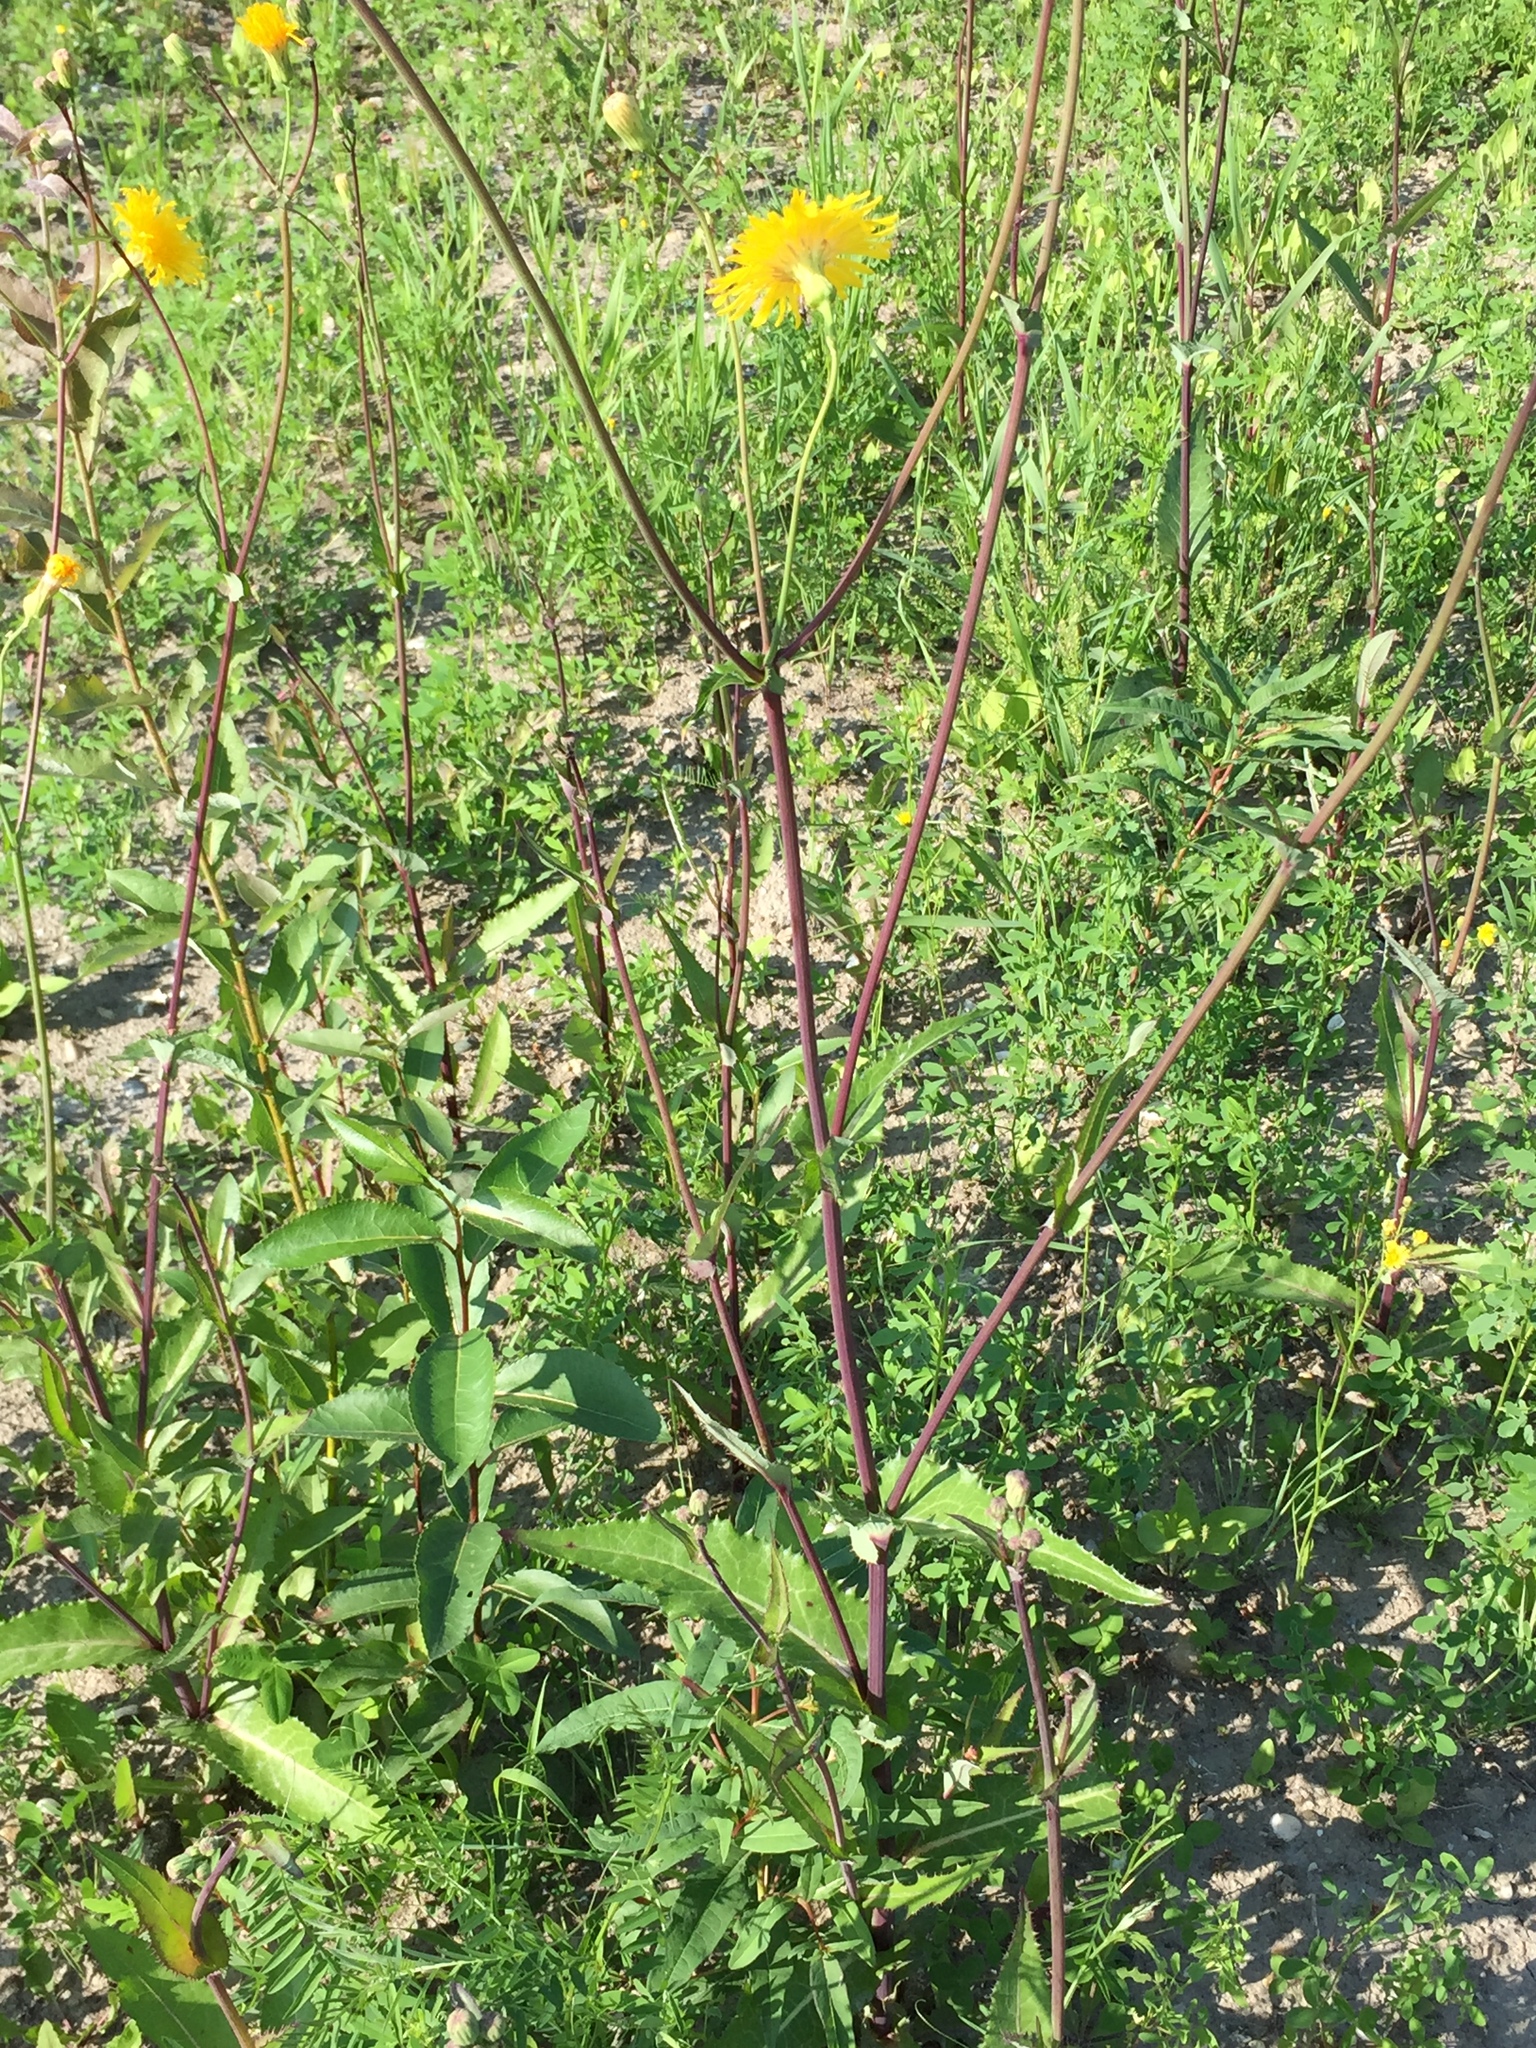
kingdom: Plantae
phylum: Tracheophyta
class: Magnoliopsida
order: Asterales
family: Asteraceae
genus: Sonchus
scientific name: Sonchus arvensis
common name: Perennial sow-thistle
